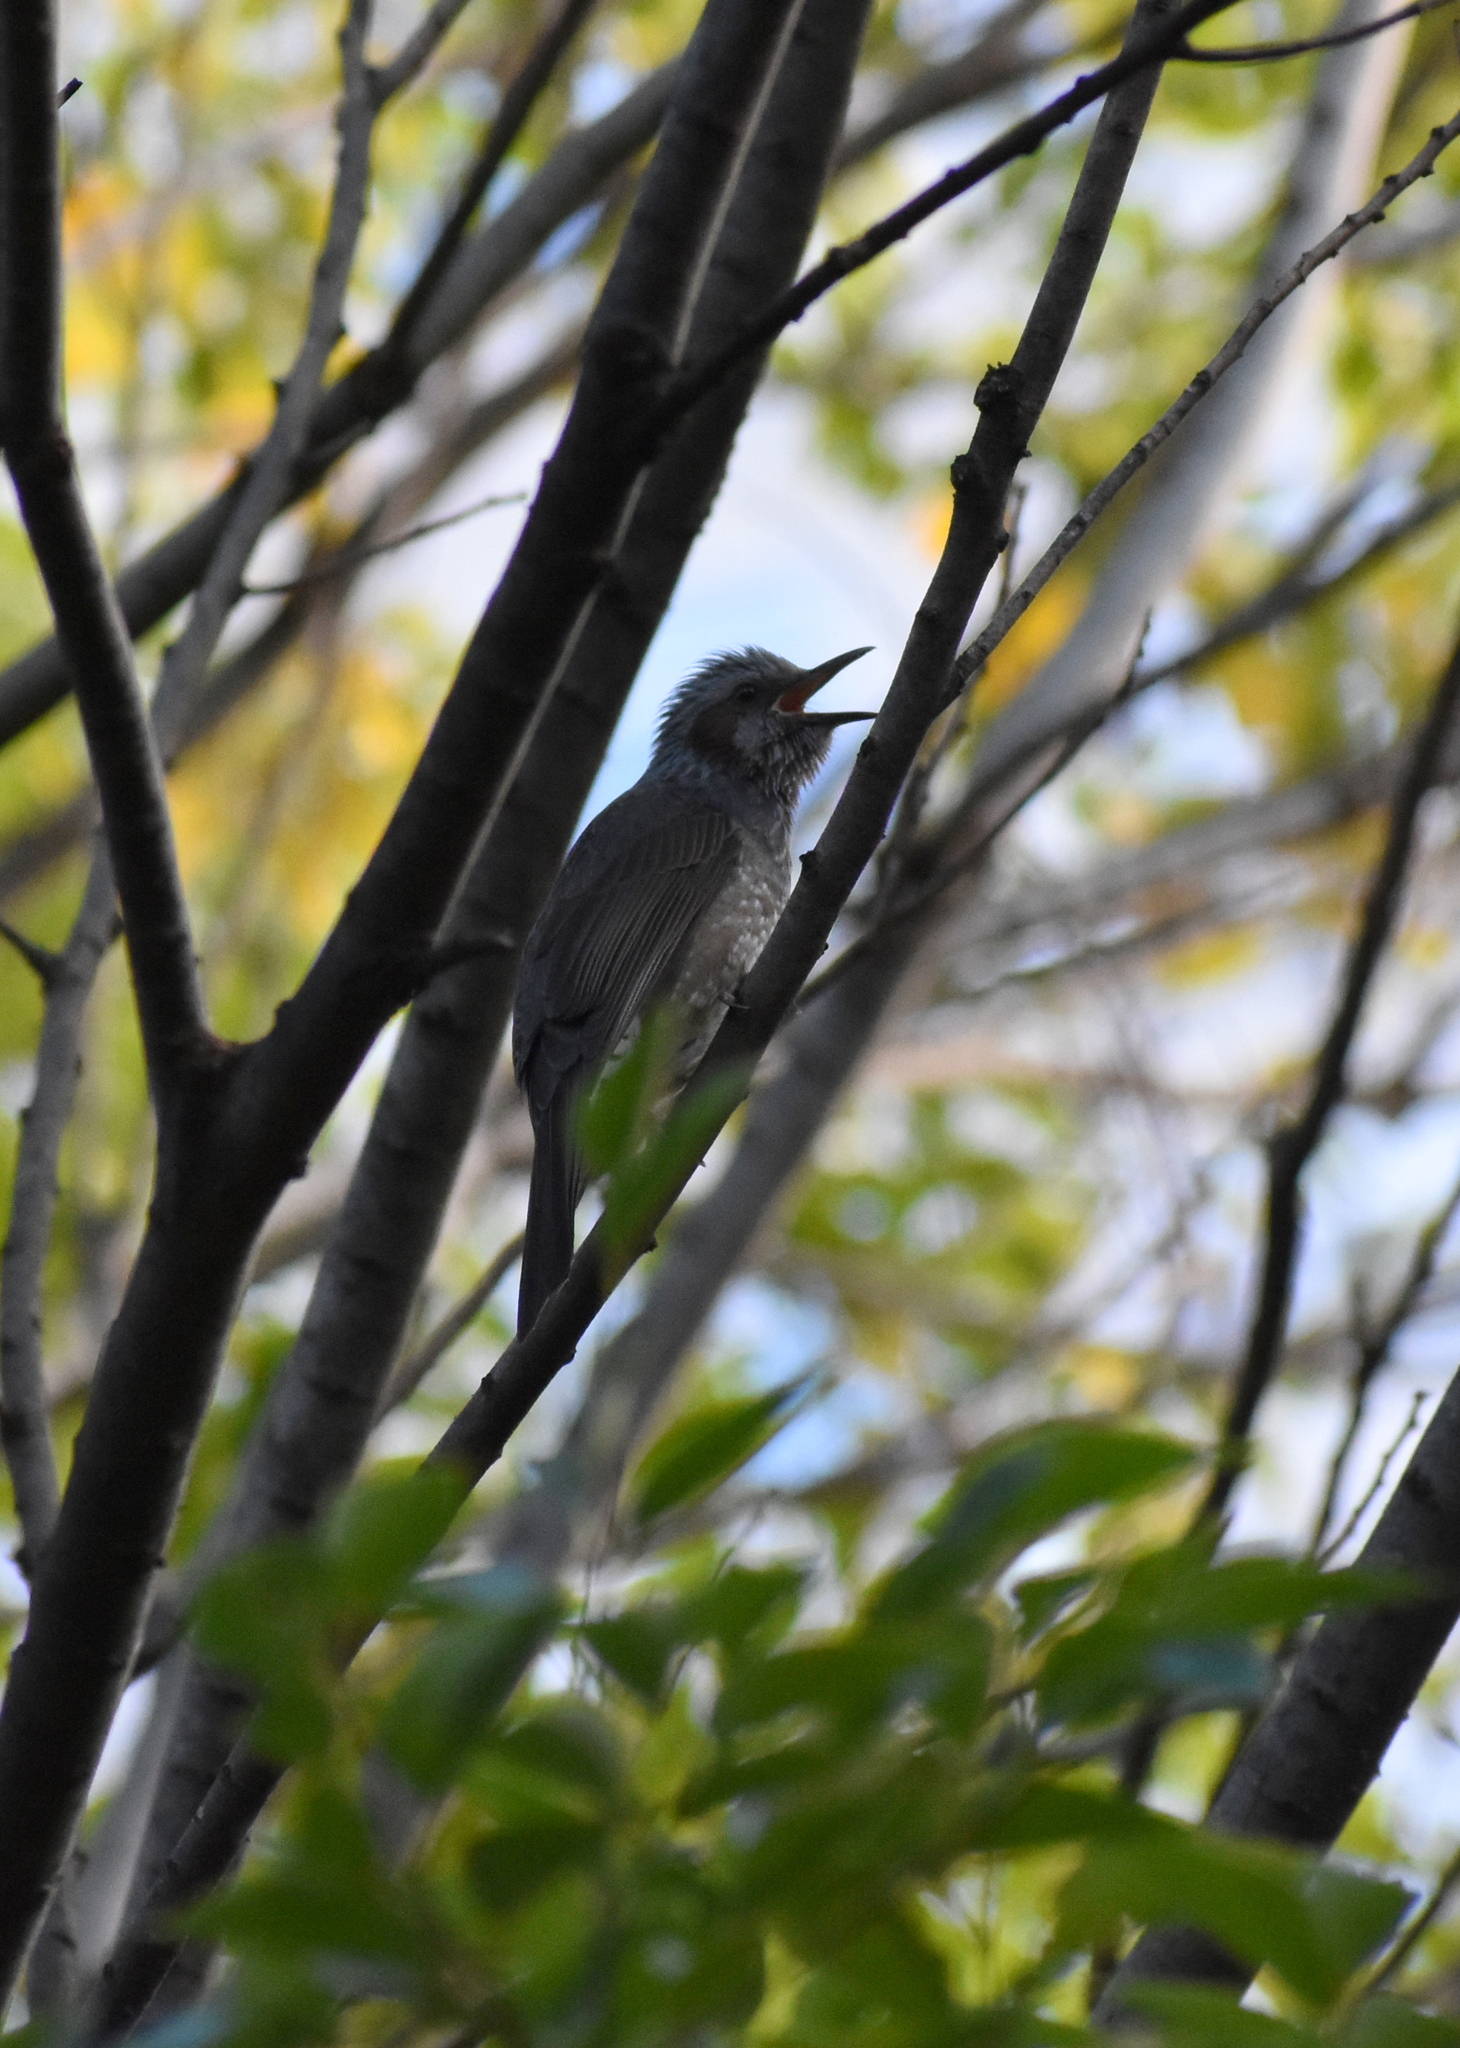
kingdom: Animalia
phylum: Chordata
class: Aves
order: Passeriformes
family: Pycnonotidae
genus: Hypsipetes
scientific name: Hypsipetes amaurotis
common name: Brown-eared bulbul
